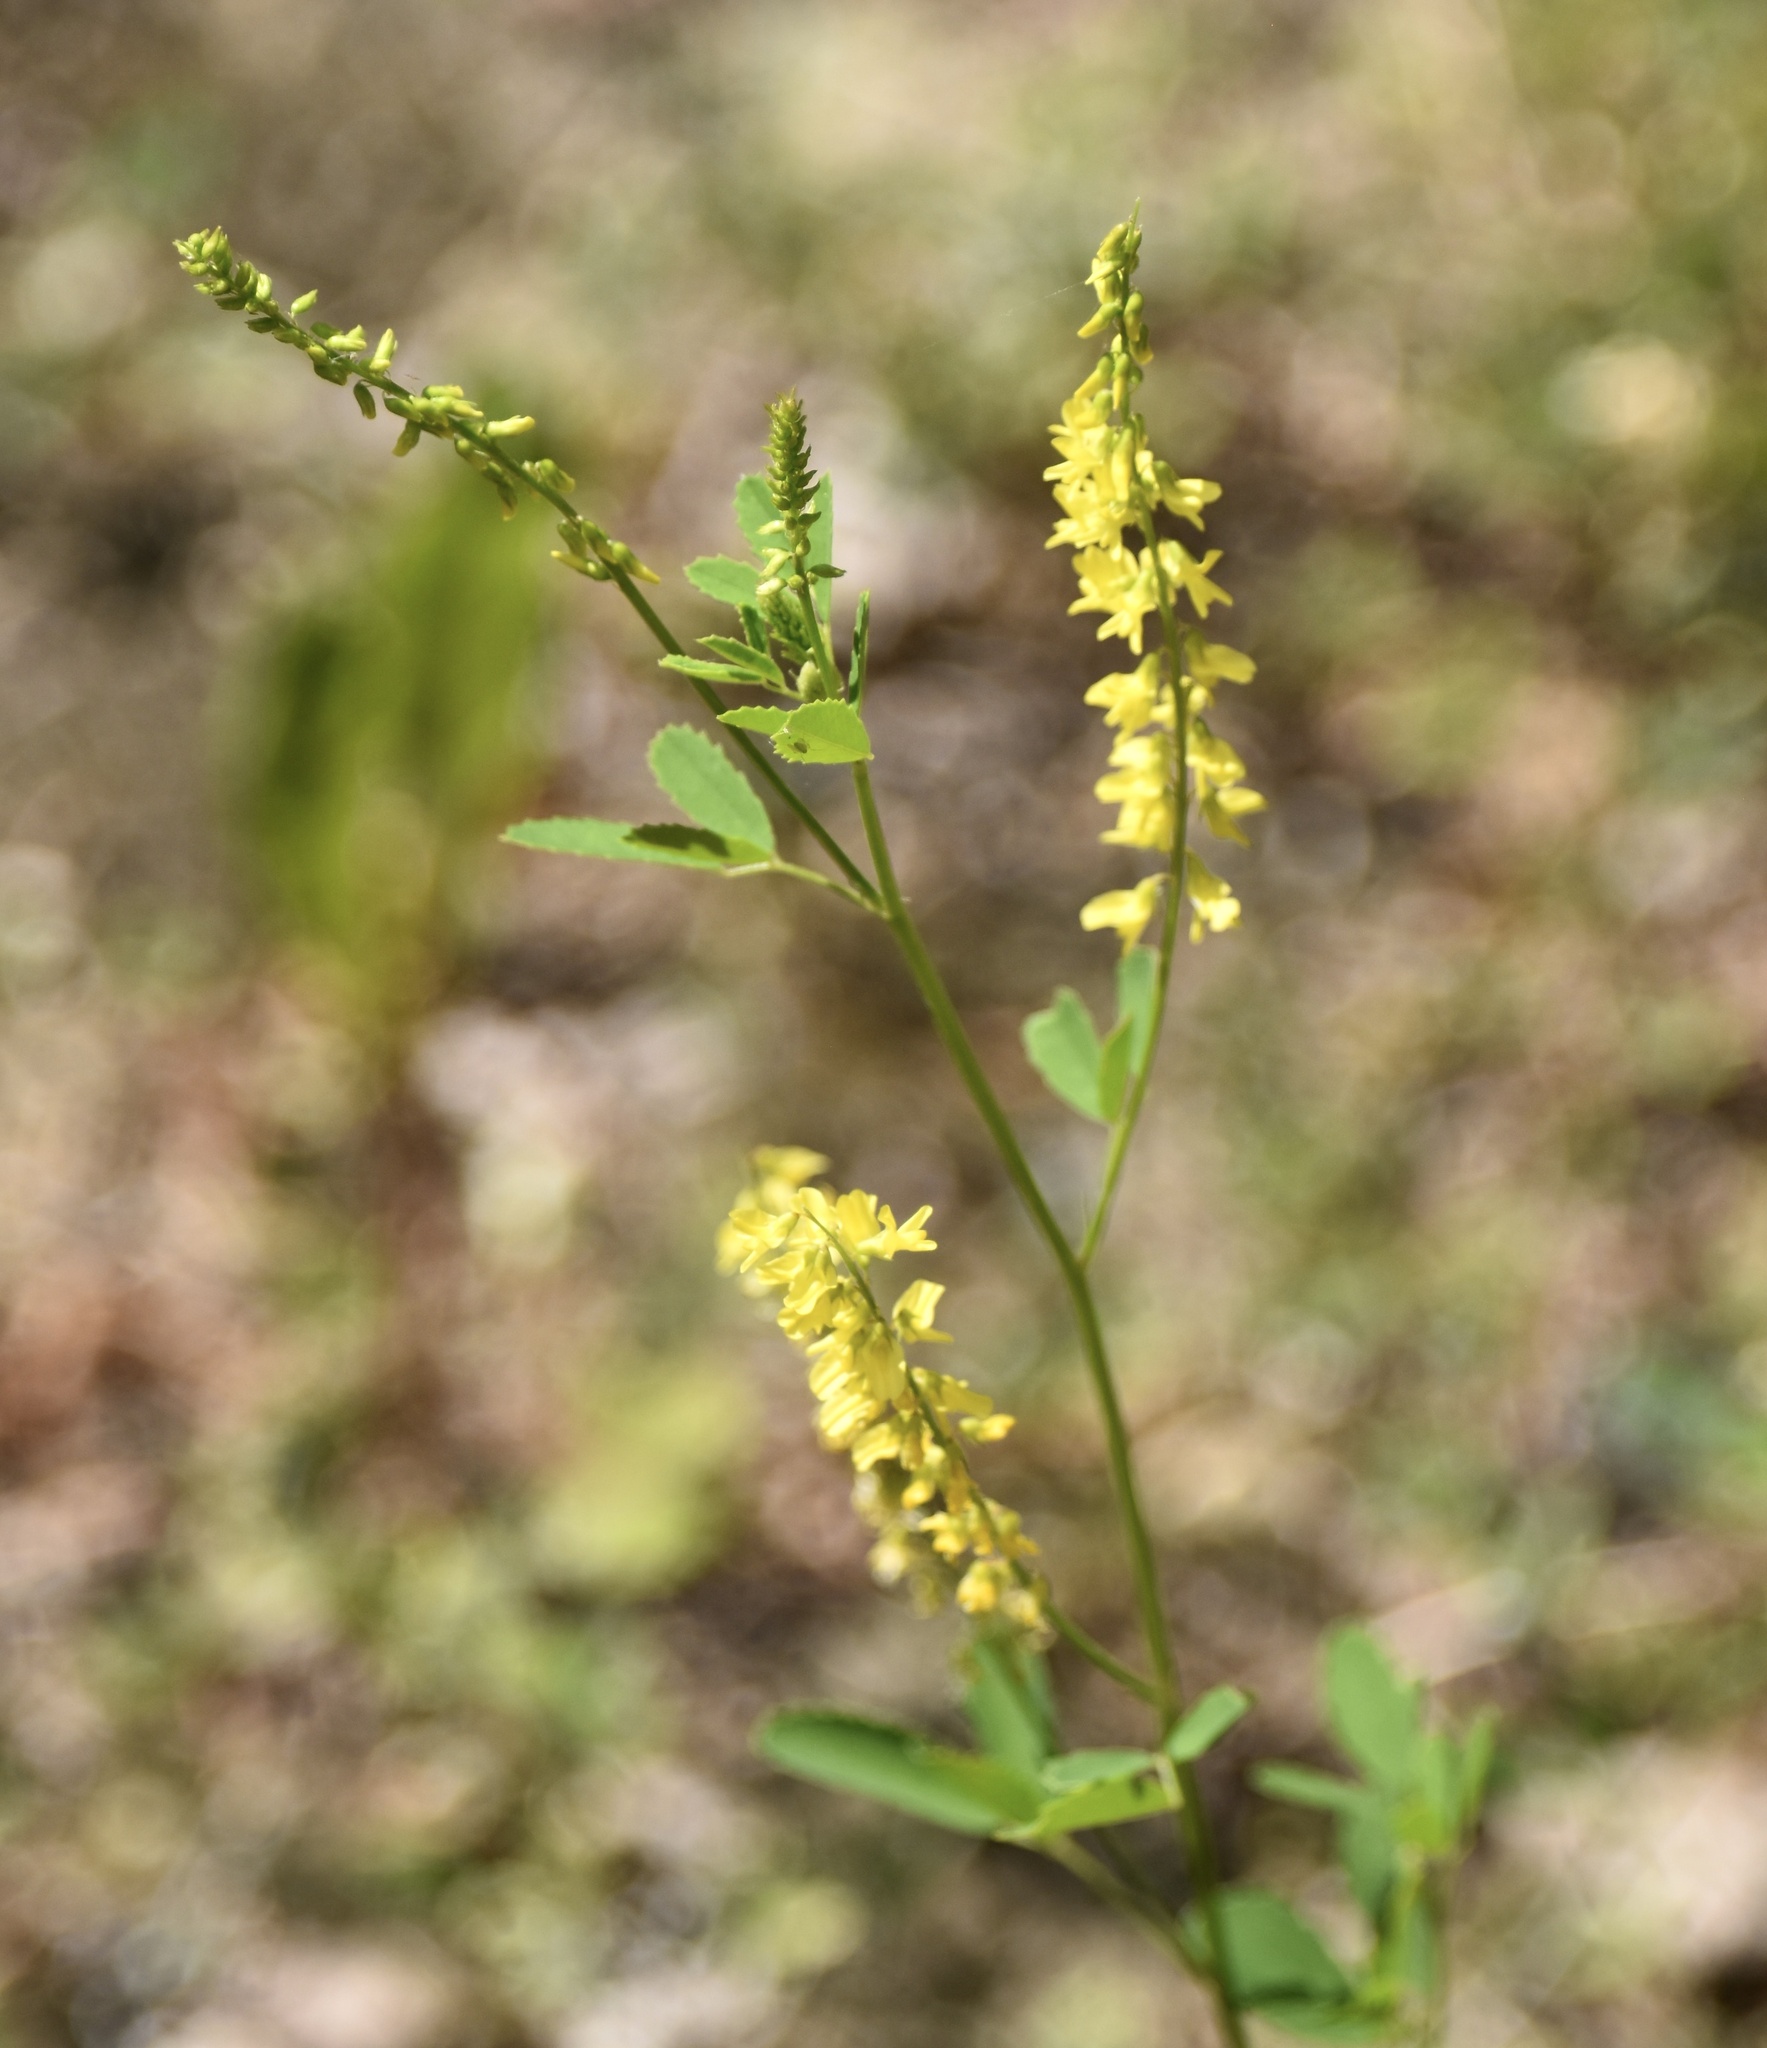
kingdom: Plantae
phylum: Tracheophyta
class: Magnoliopsida
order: Fabales
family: Fabaceae
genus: Melilotus
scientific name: Melilotus officinalis
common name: Sweetclover
